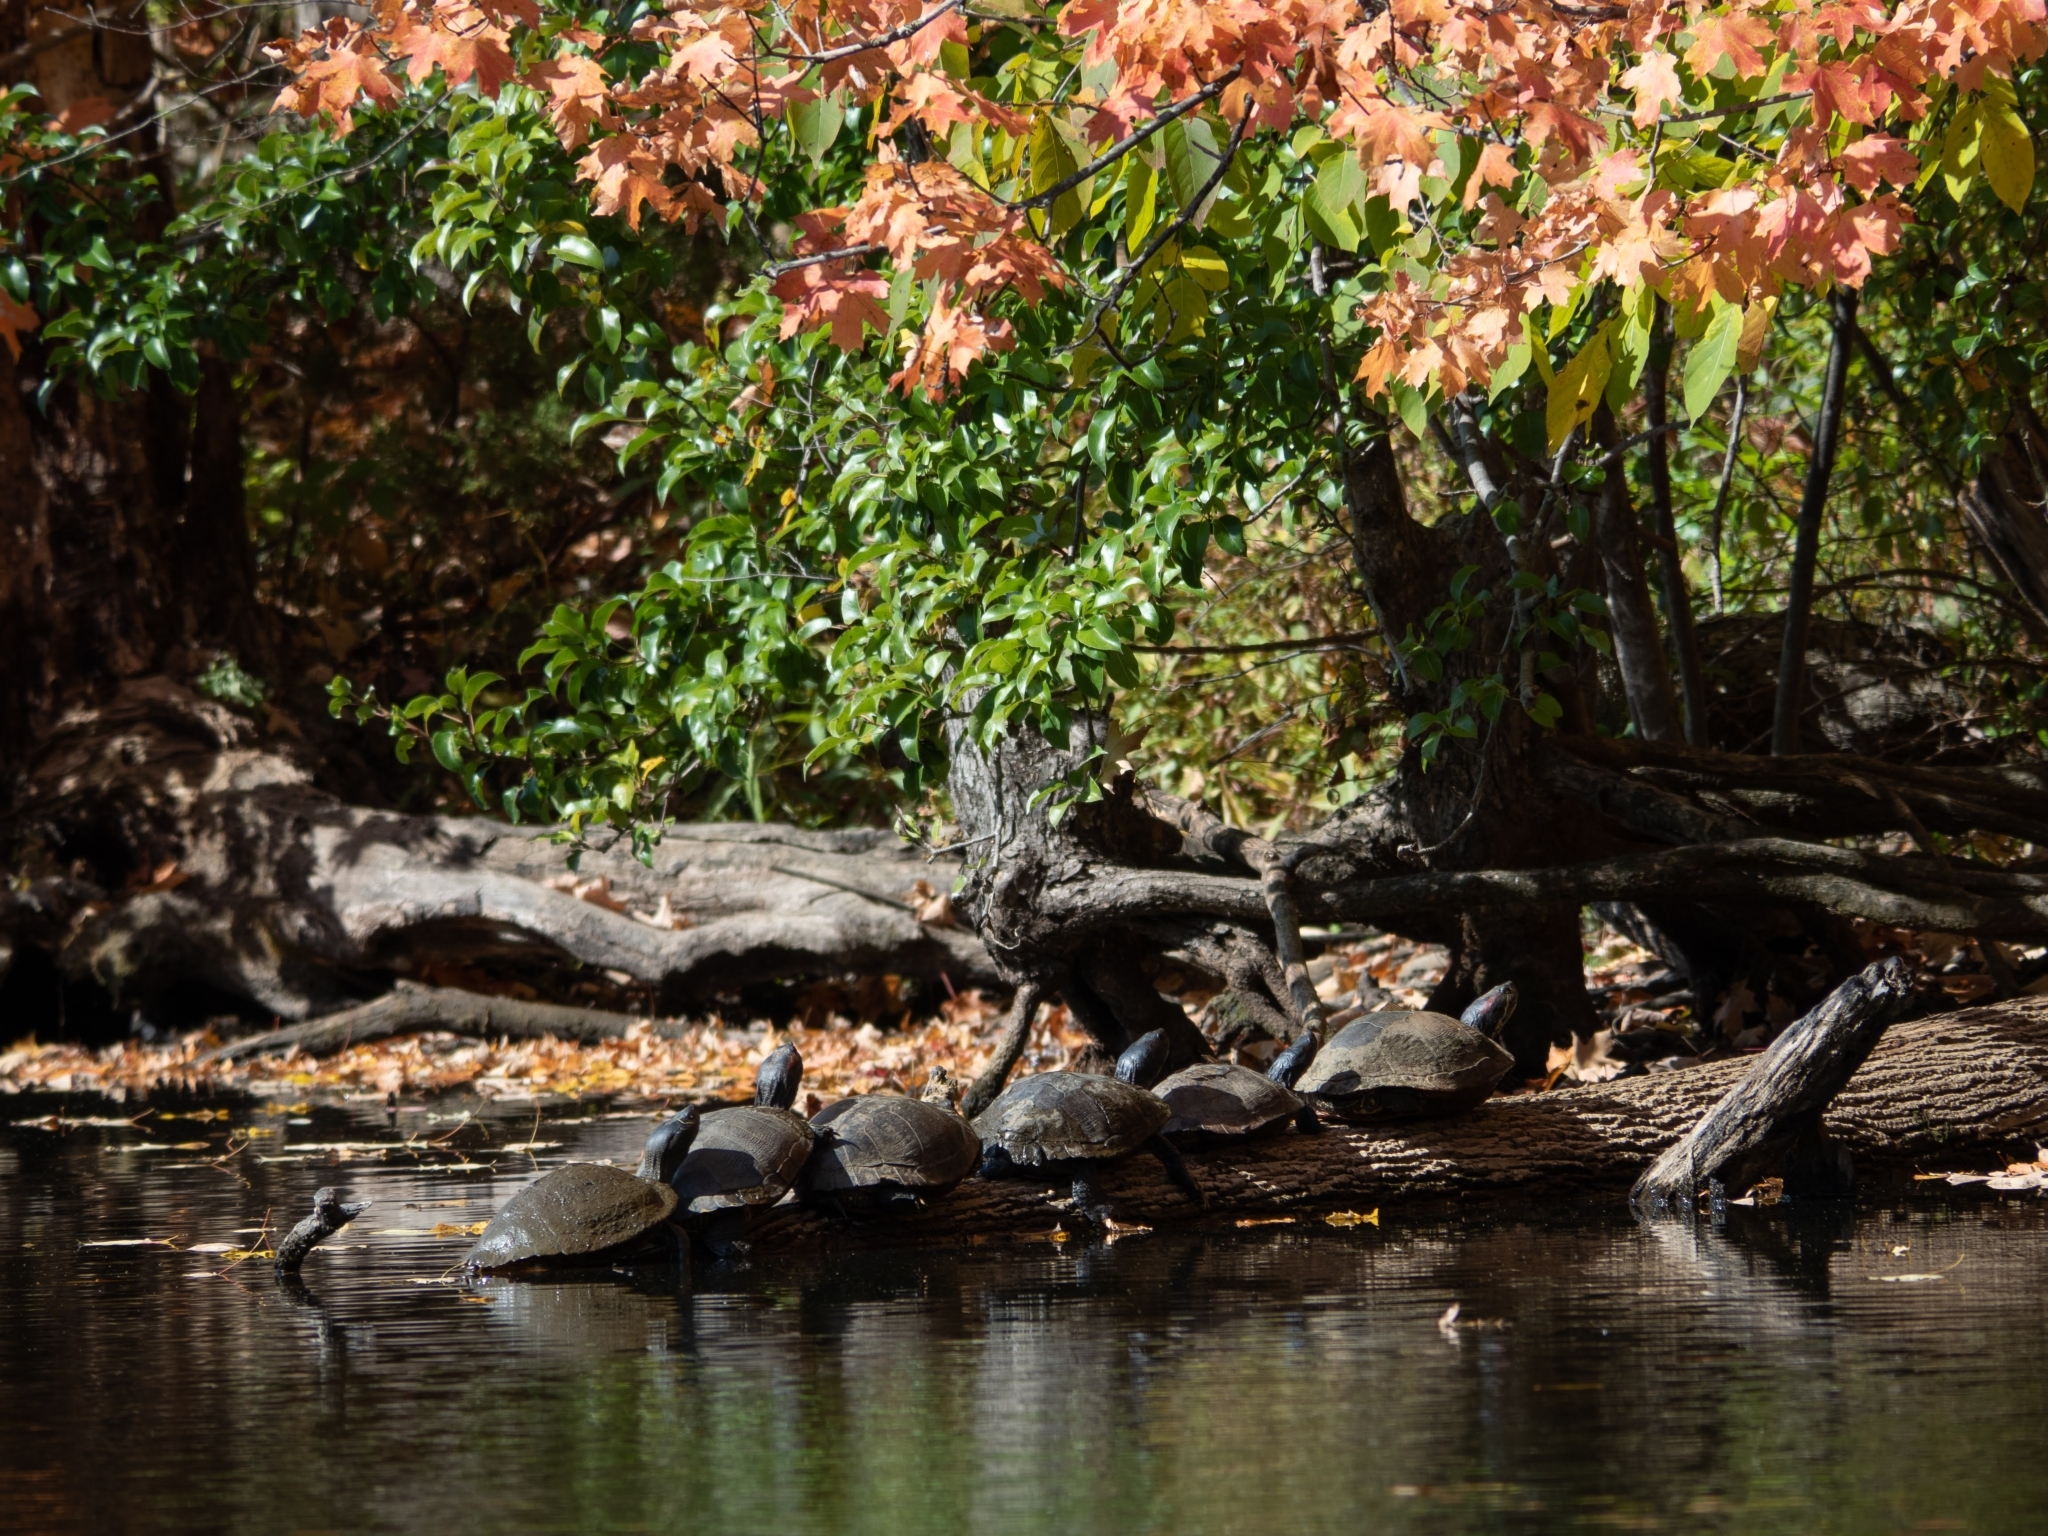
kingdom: Animalia
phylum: Chordata
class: Testudines
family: Emydidae
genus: Trachemys
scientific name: Trachemys scripta
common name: Slider
